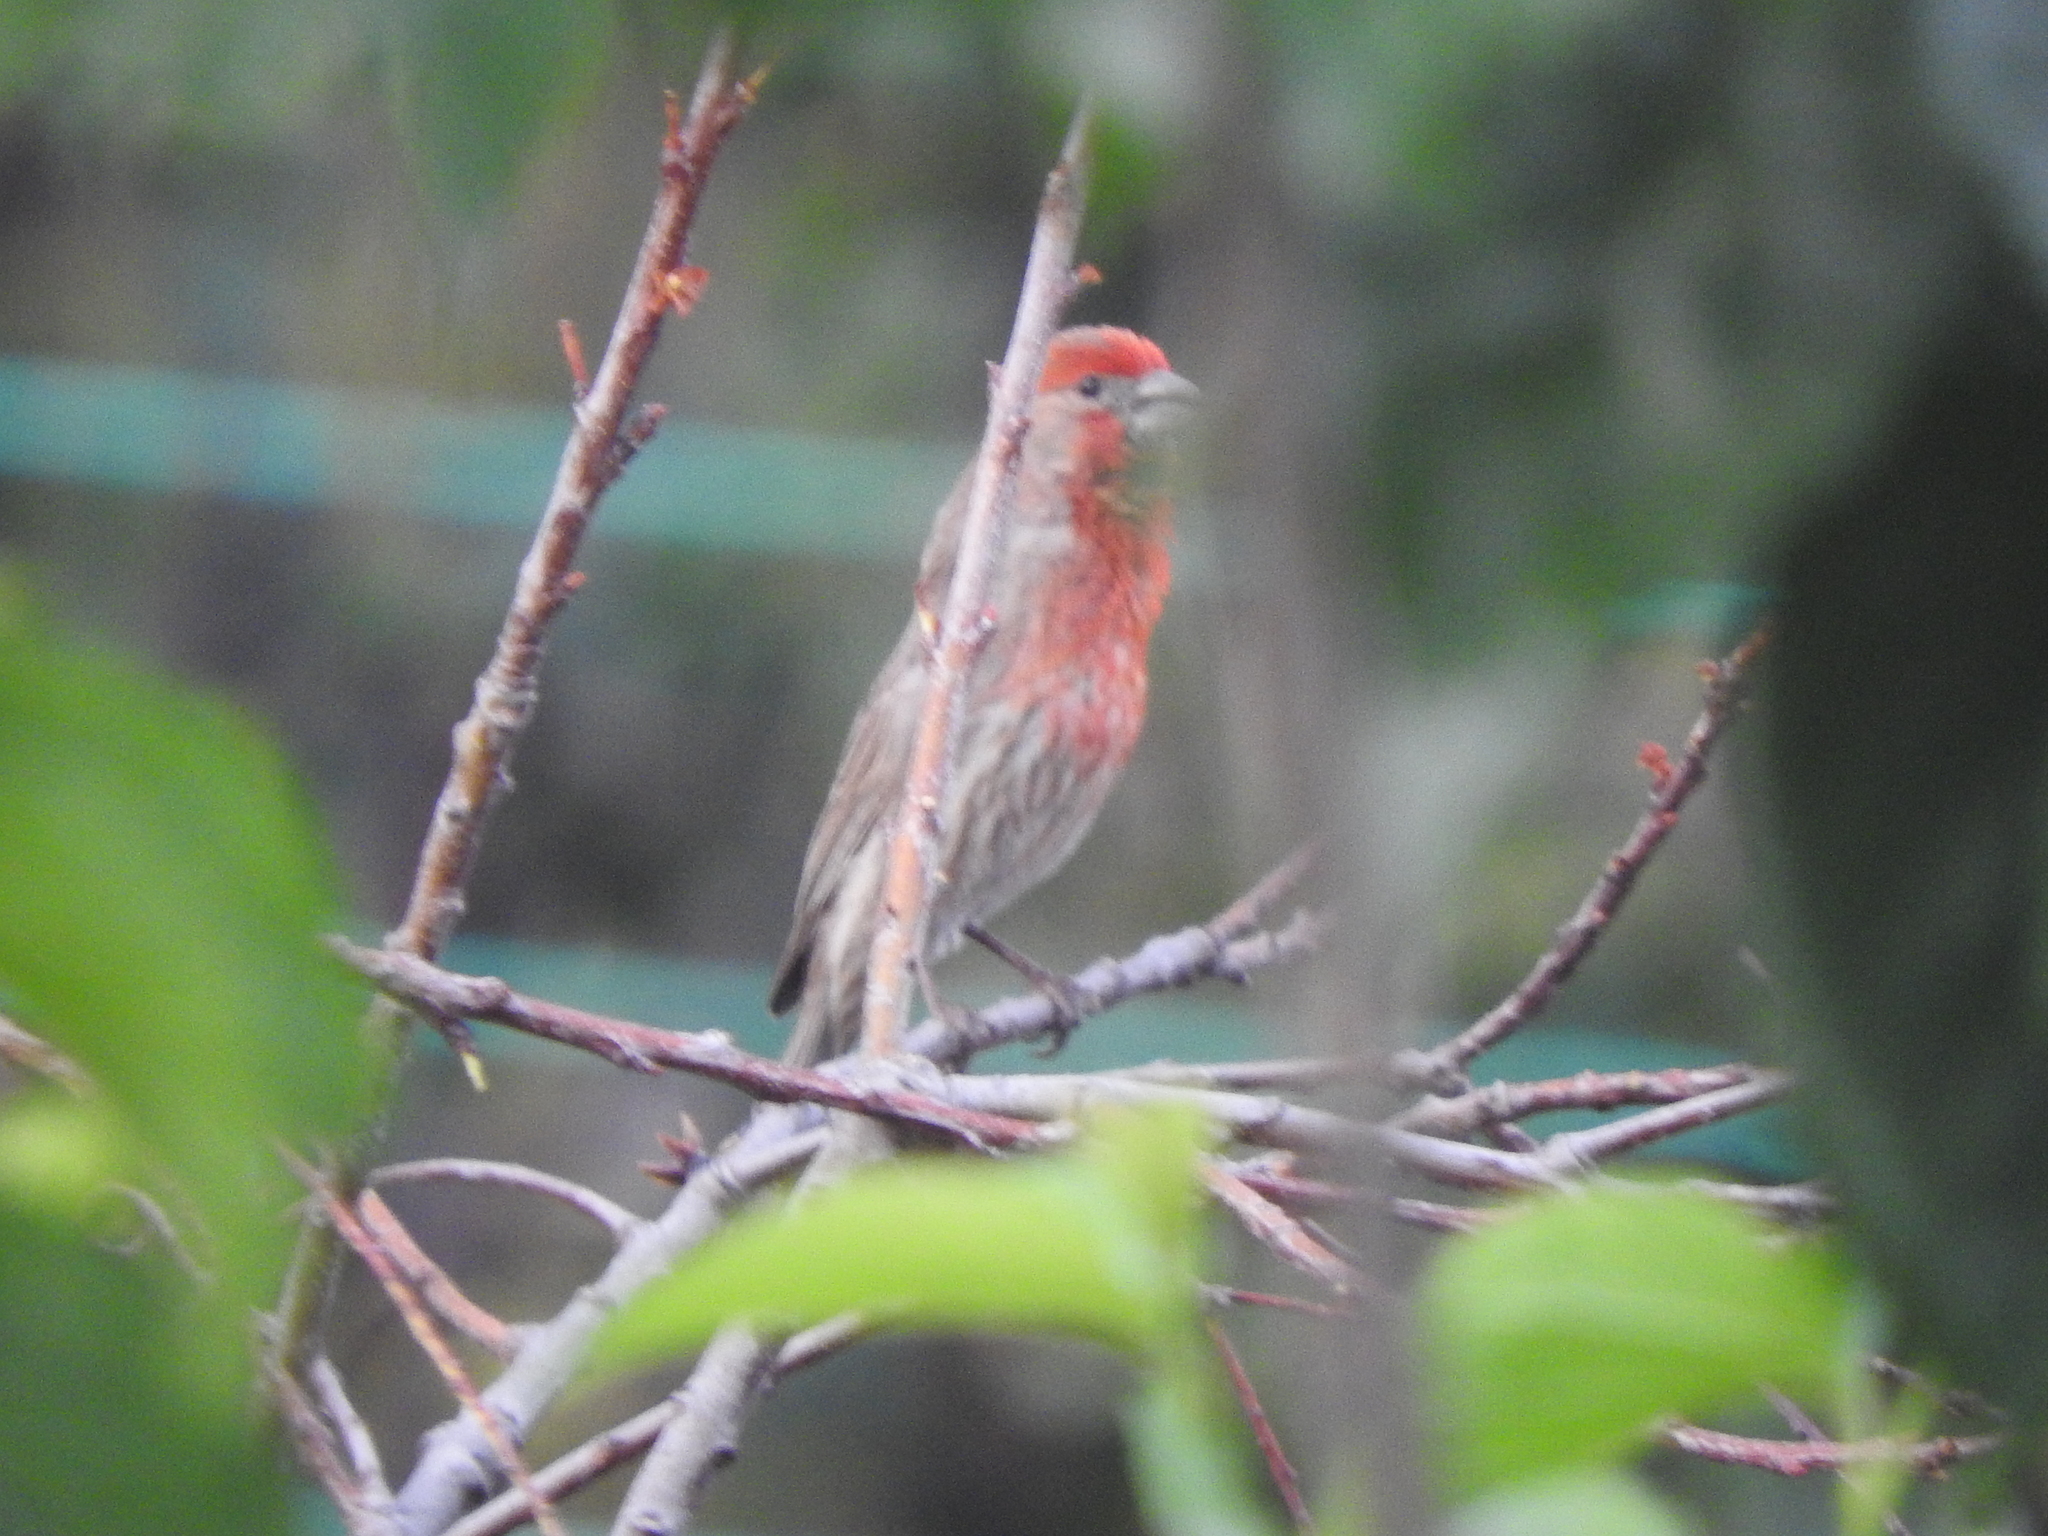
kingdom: Animalia
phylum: Chordata
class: Aves
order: Passeriformes
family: Fringillidae
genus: Haemorhous
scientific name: Haemorhous mexicanus
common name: House finch
